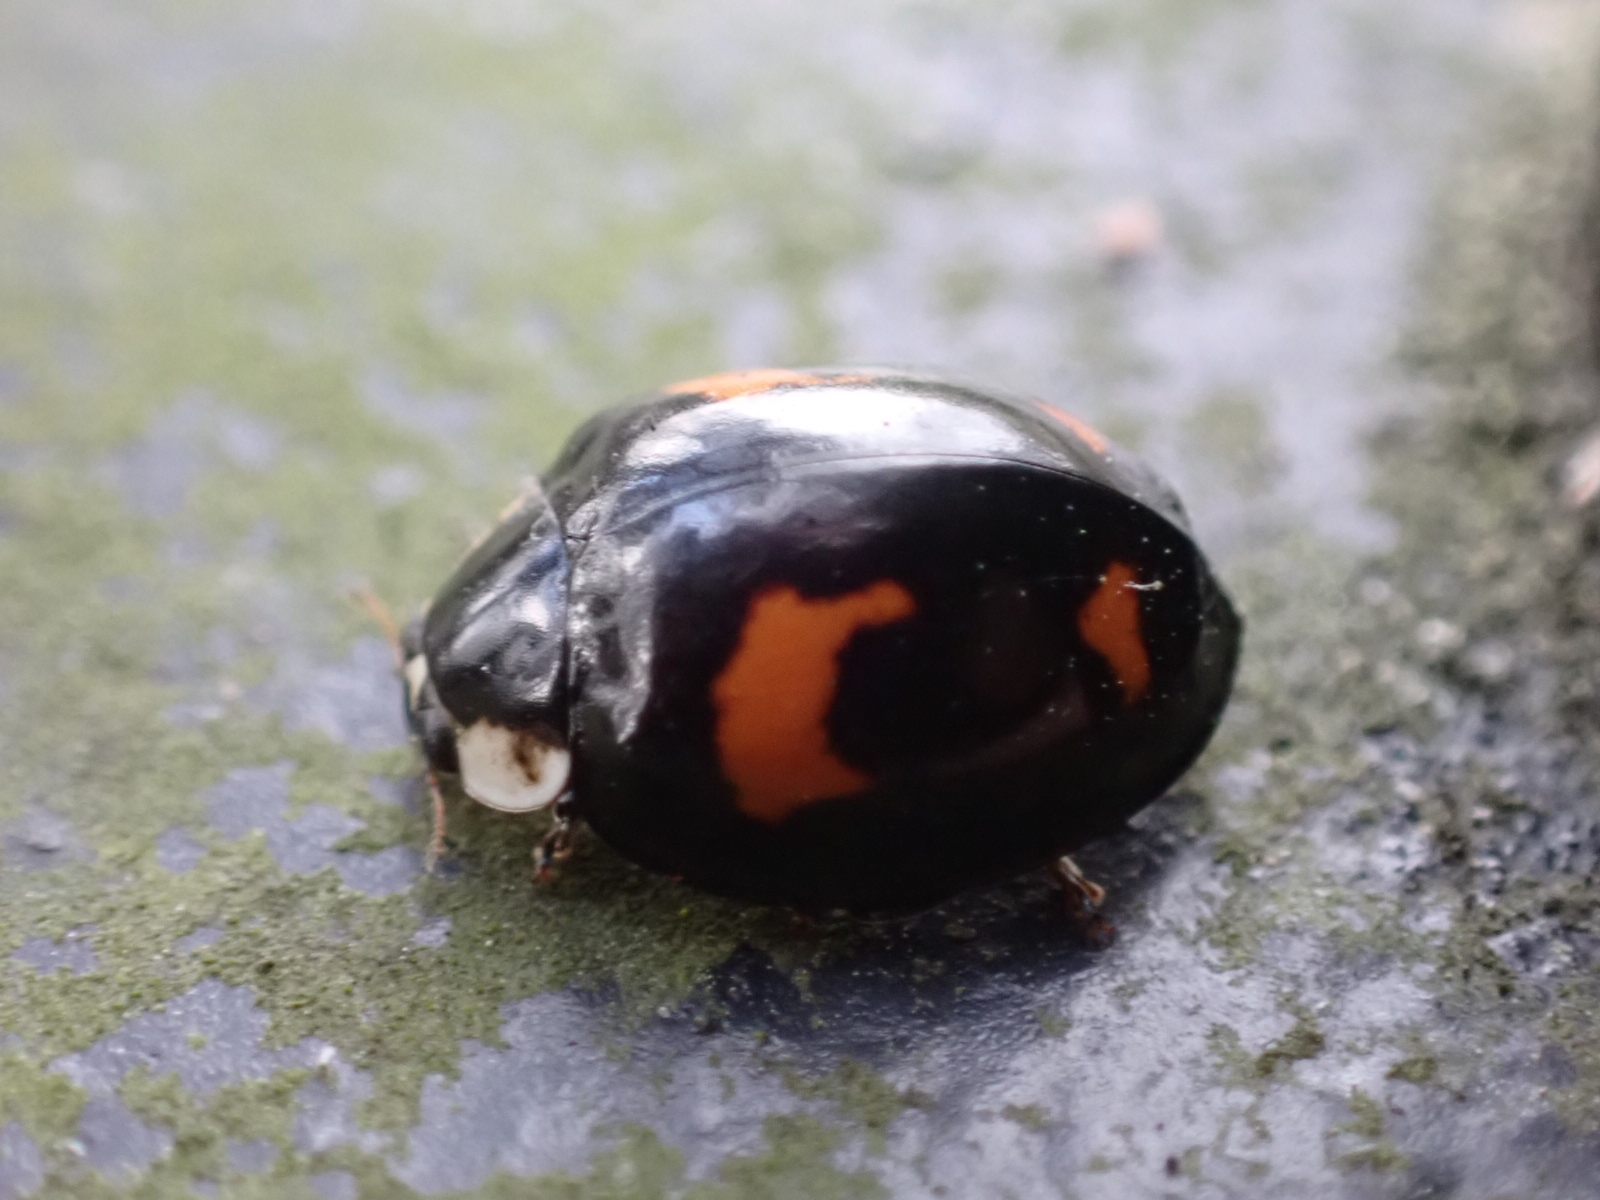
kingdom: Animalia
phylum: Arthropoda
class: Insecta
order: Coleoptera
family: Coccinellidae
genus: Harmonia
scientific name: Harmonia axyridis
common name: Harlequin ladybird
